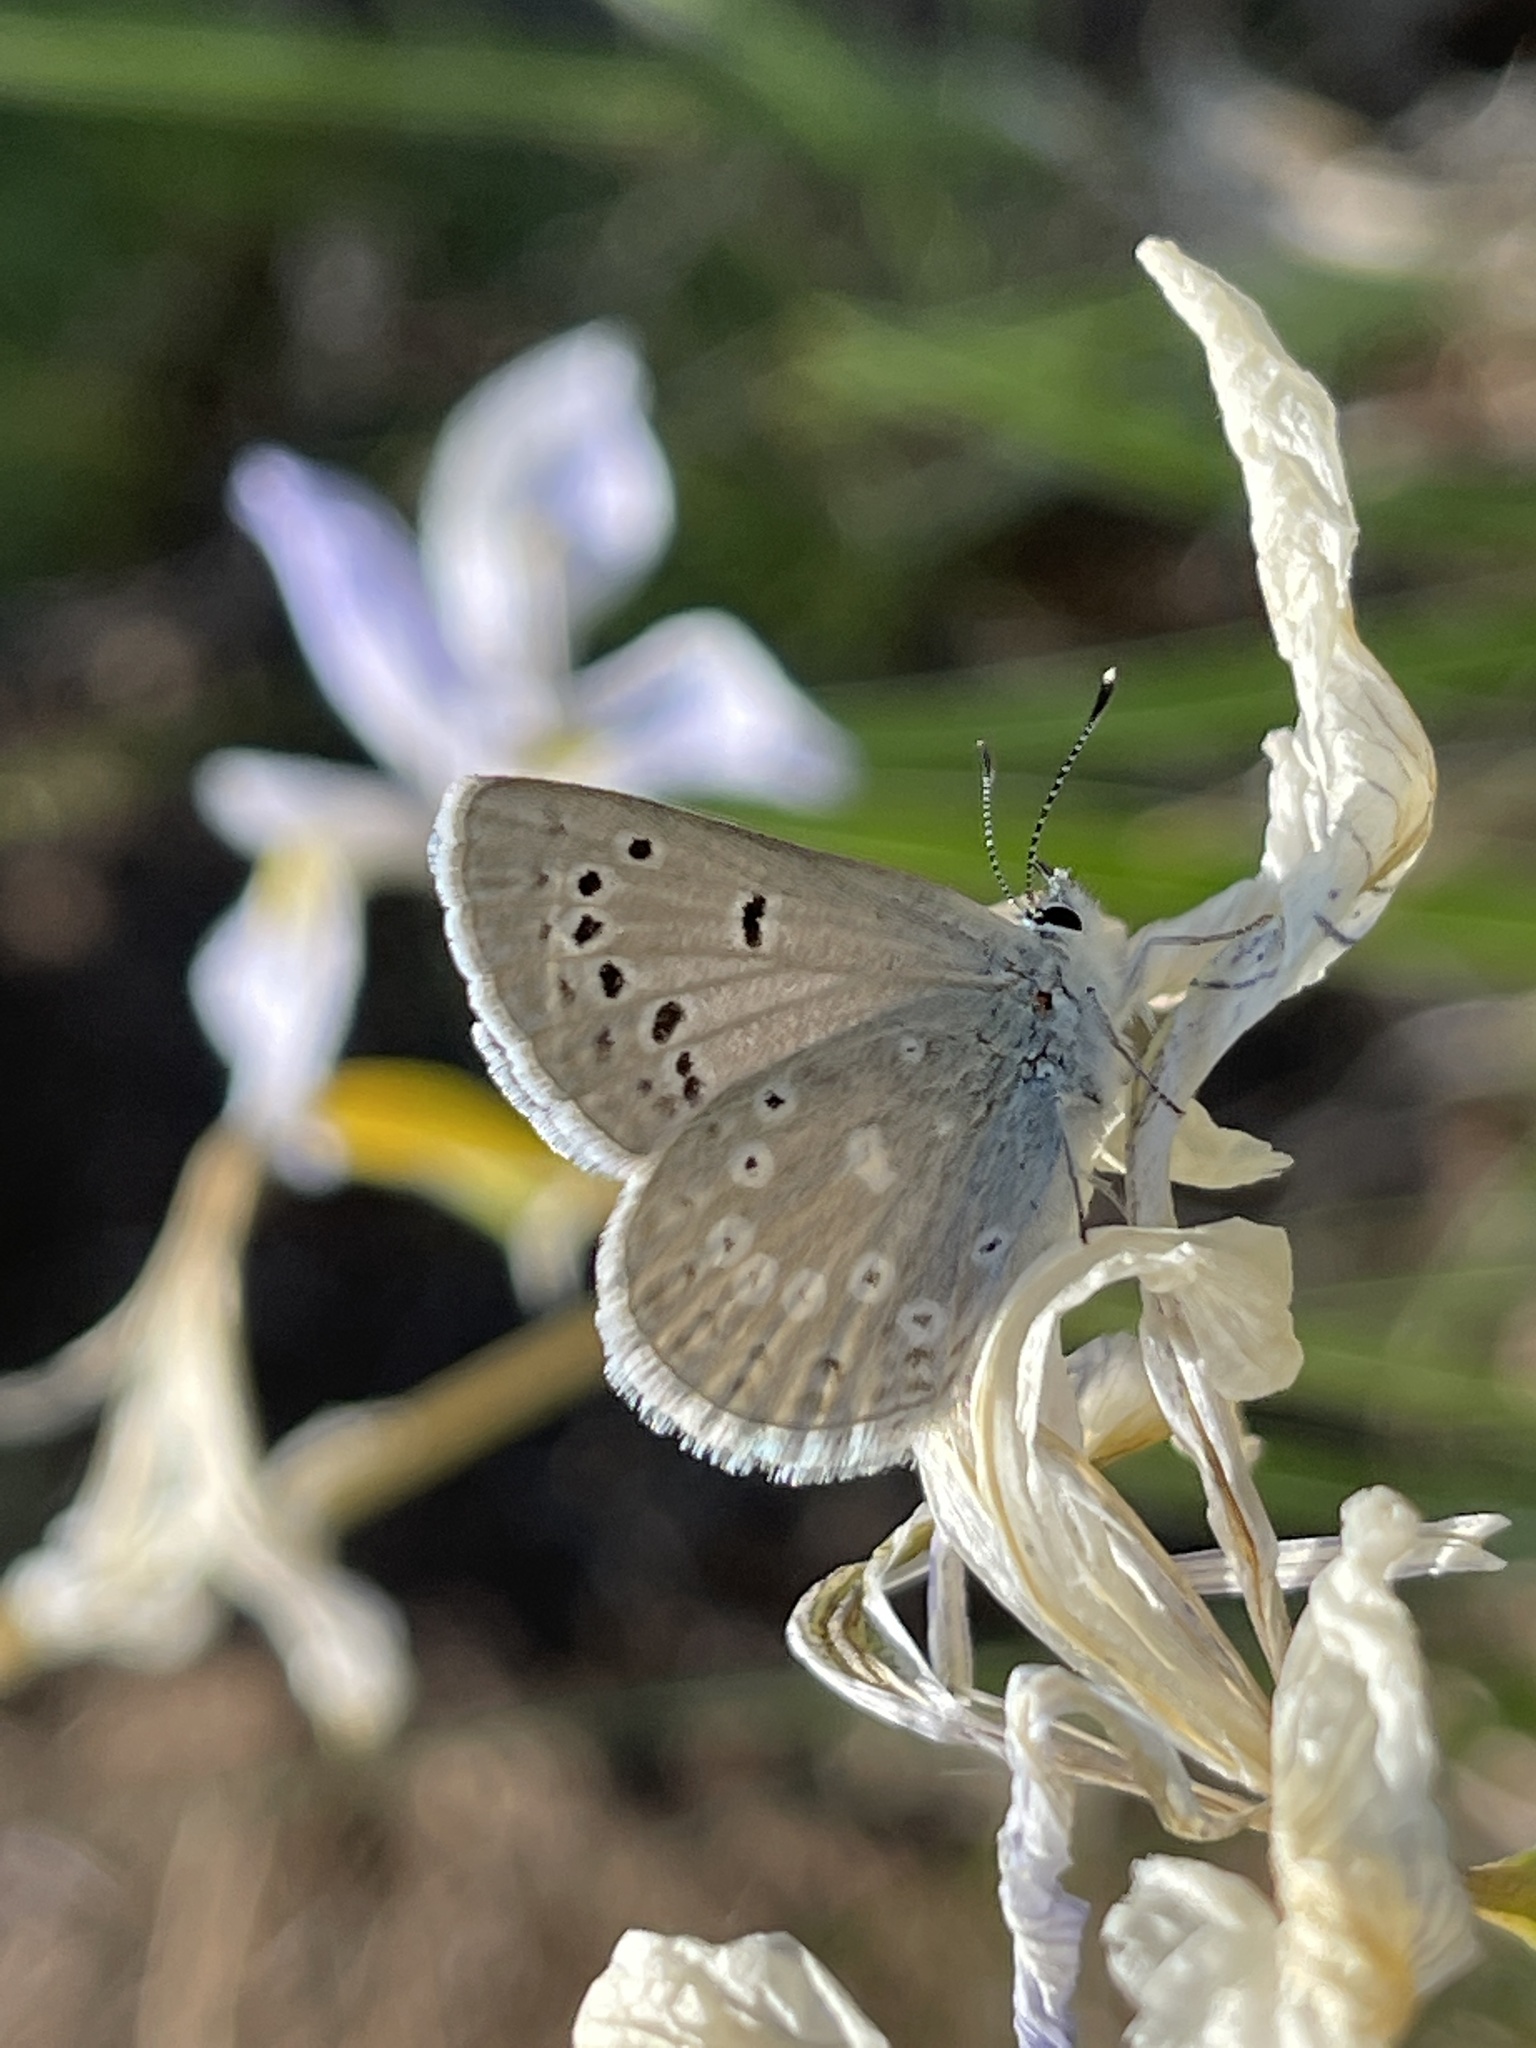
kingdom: Animalia
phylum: Arthropoda
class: Insecta
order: Lepidoptera
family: Lycaenidae
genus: Icaricia
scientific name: Icaricia icarioides
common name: Boisduval's blue
